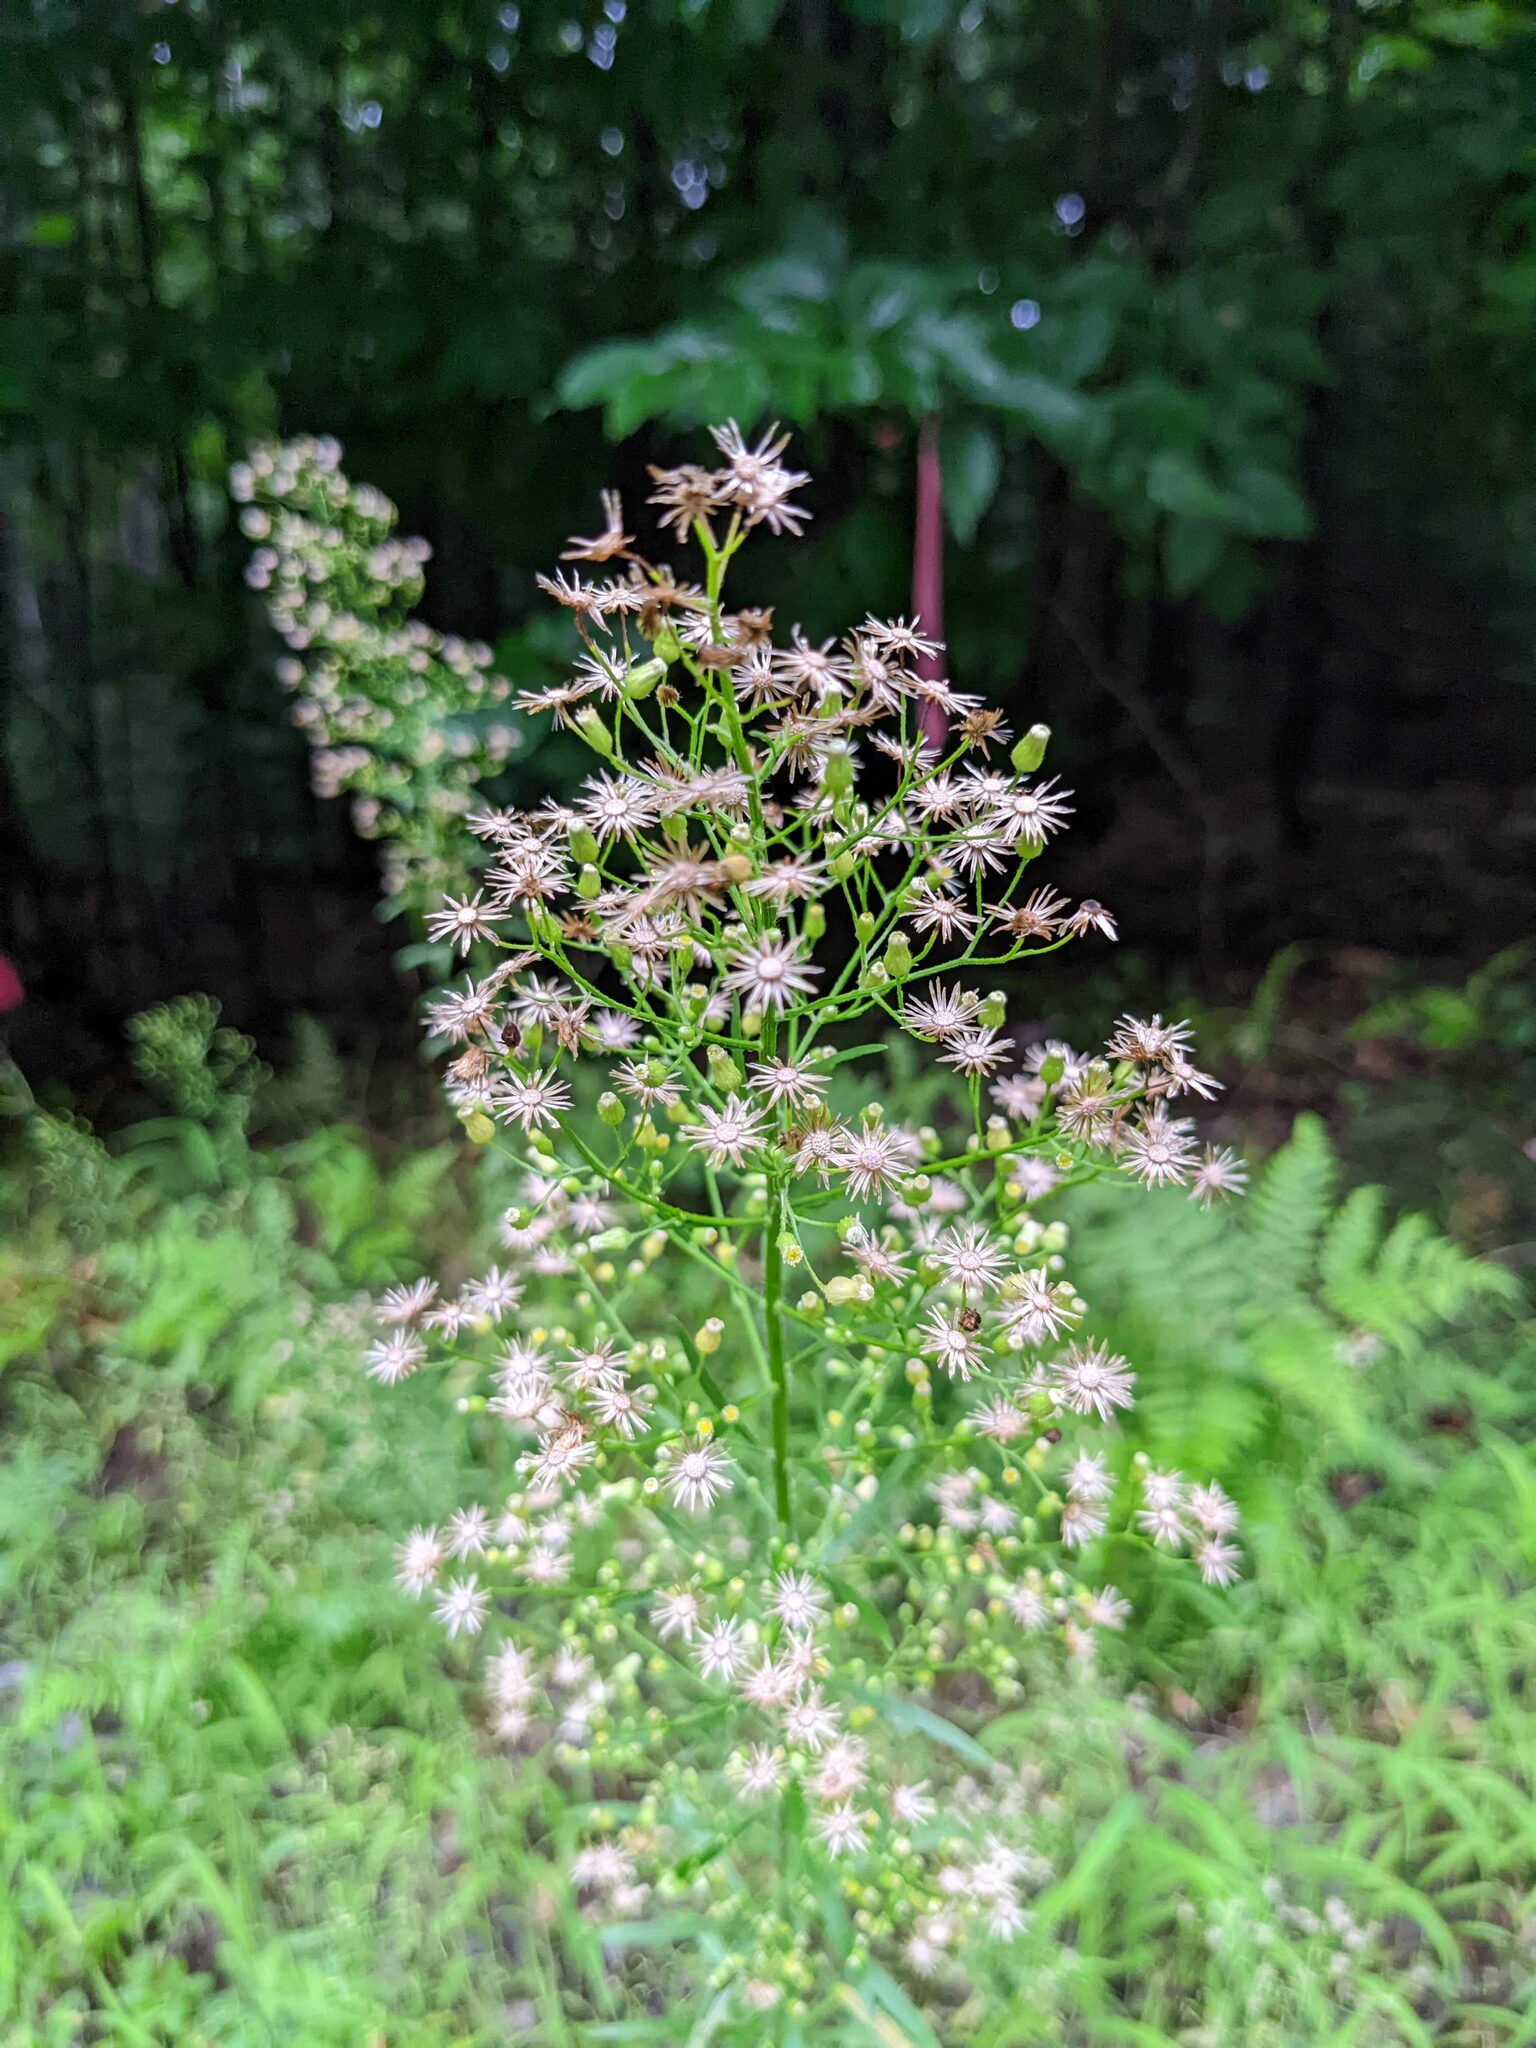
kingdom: Plantae
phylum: Tracheophyta
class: Magnoliopsida
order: Asterales
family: Asteraceae
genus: Erigeron
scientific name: Erigeron canadensis
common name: Canadian fleabane
